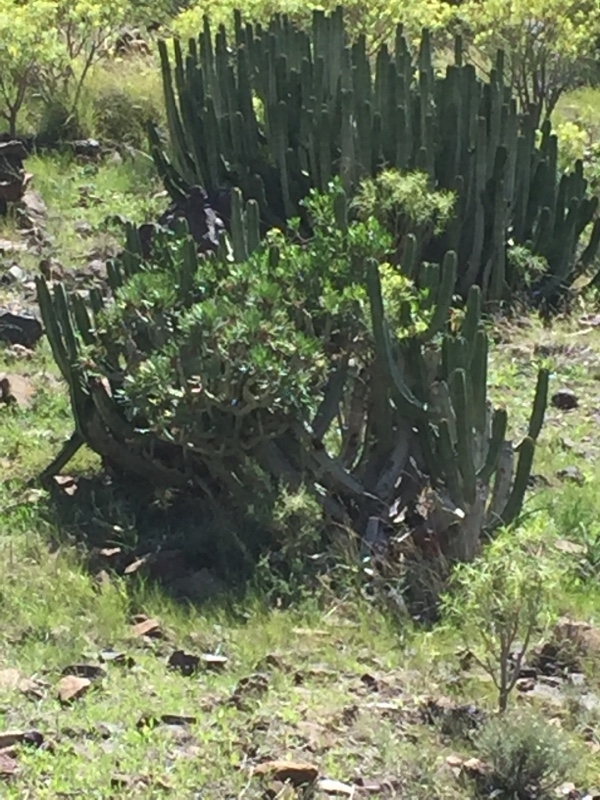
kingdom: Plantae
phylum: Tracheophyta
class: Magnoliopsida
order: Malpighiales
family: Euphorbiaceae
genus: Euphorbia
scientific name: Euphorbia canariensis
